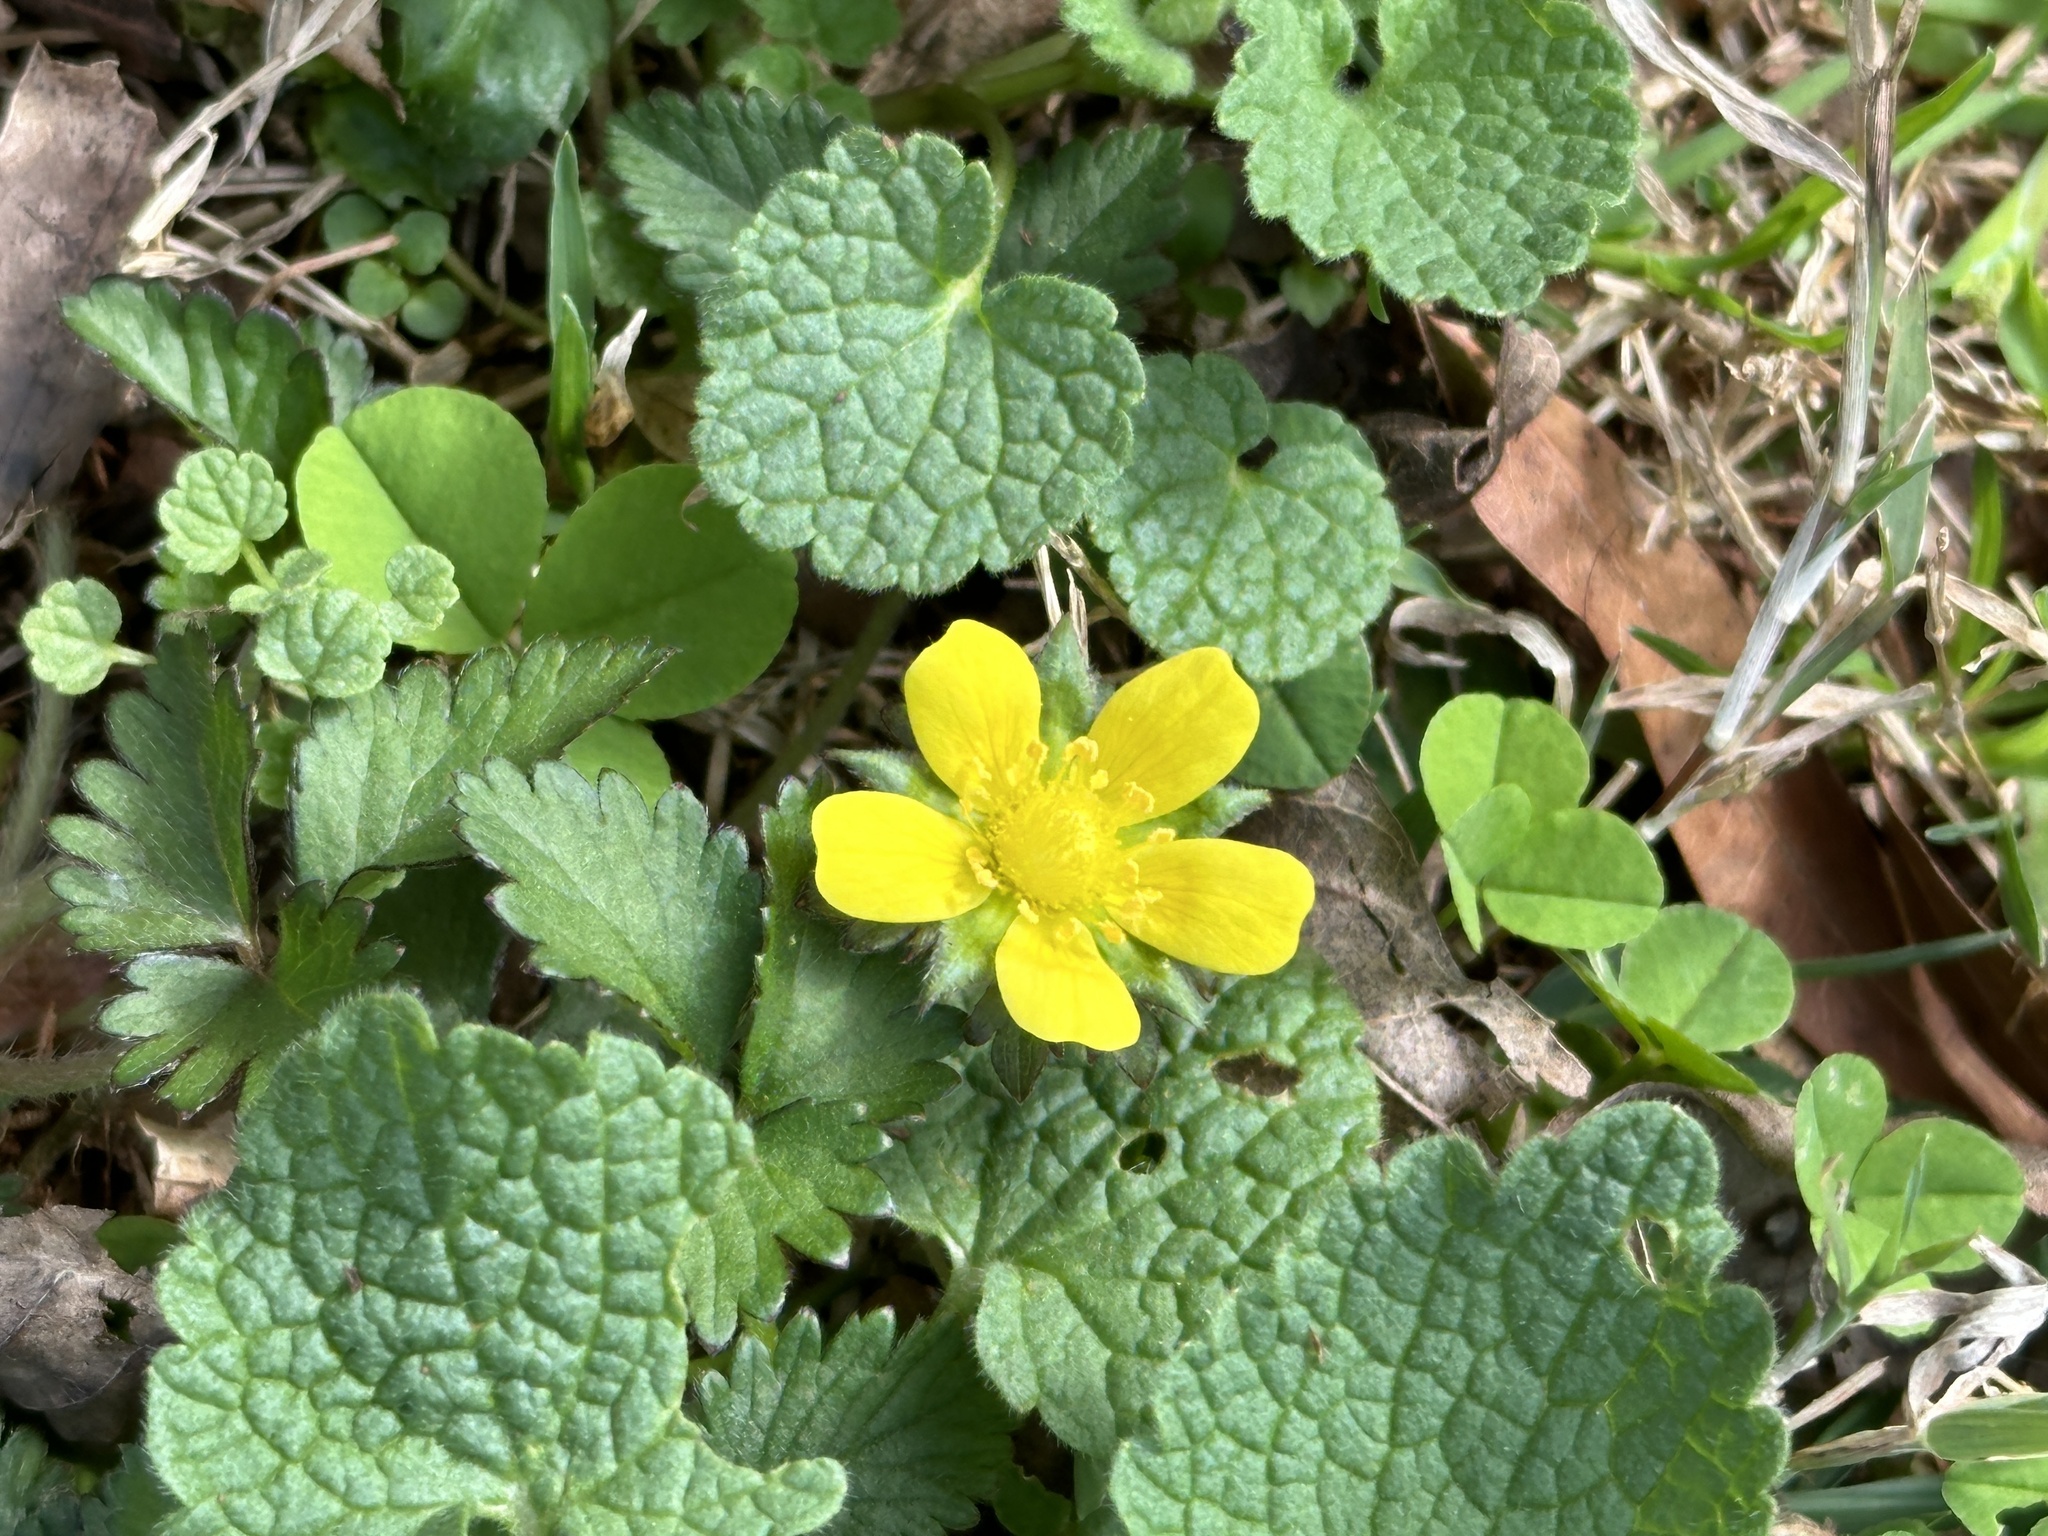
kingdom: Plantae
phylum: Tracheophyta
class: Magnoliopsida
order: Rosales
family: Rosaceae
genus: Potentilla
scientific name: Potentilla indica
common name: Yellow-flowered strawberry
